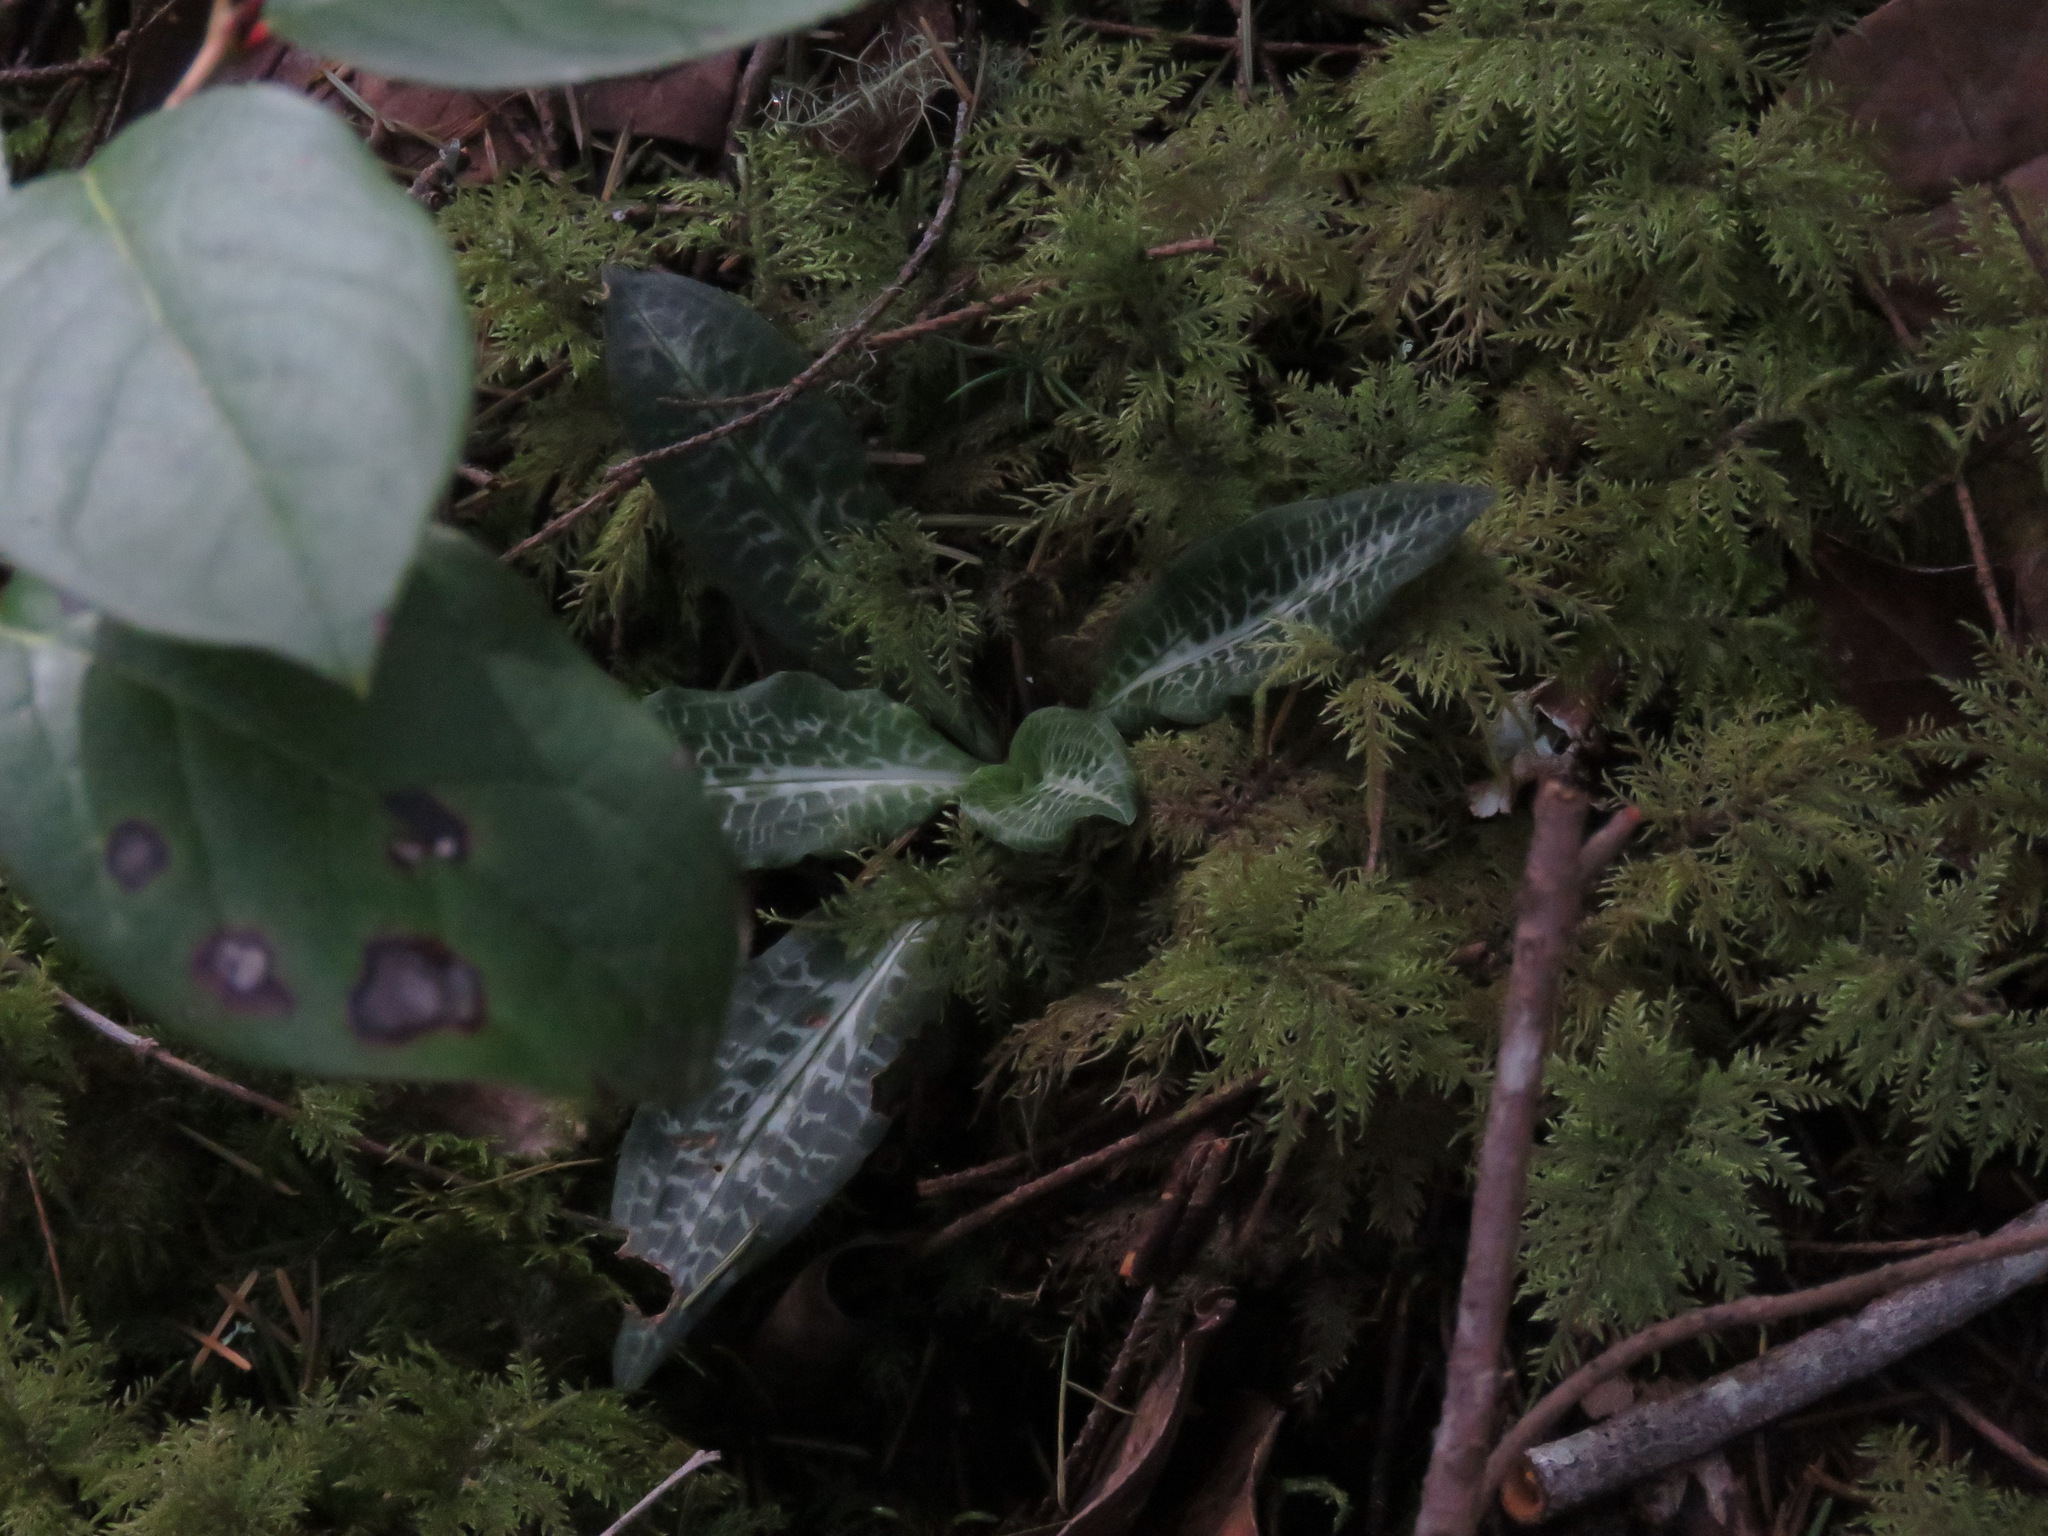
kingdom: Plantae
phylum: Tracheophyta
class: Liliopsida
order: Asparagales
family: Orchidaceae
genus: Goodyera
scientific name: Goodyera oblongifolia
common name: Giant rattlesnake-plantain
